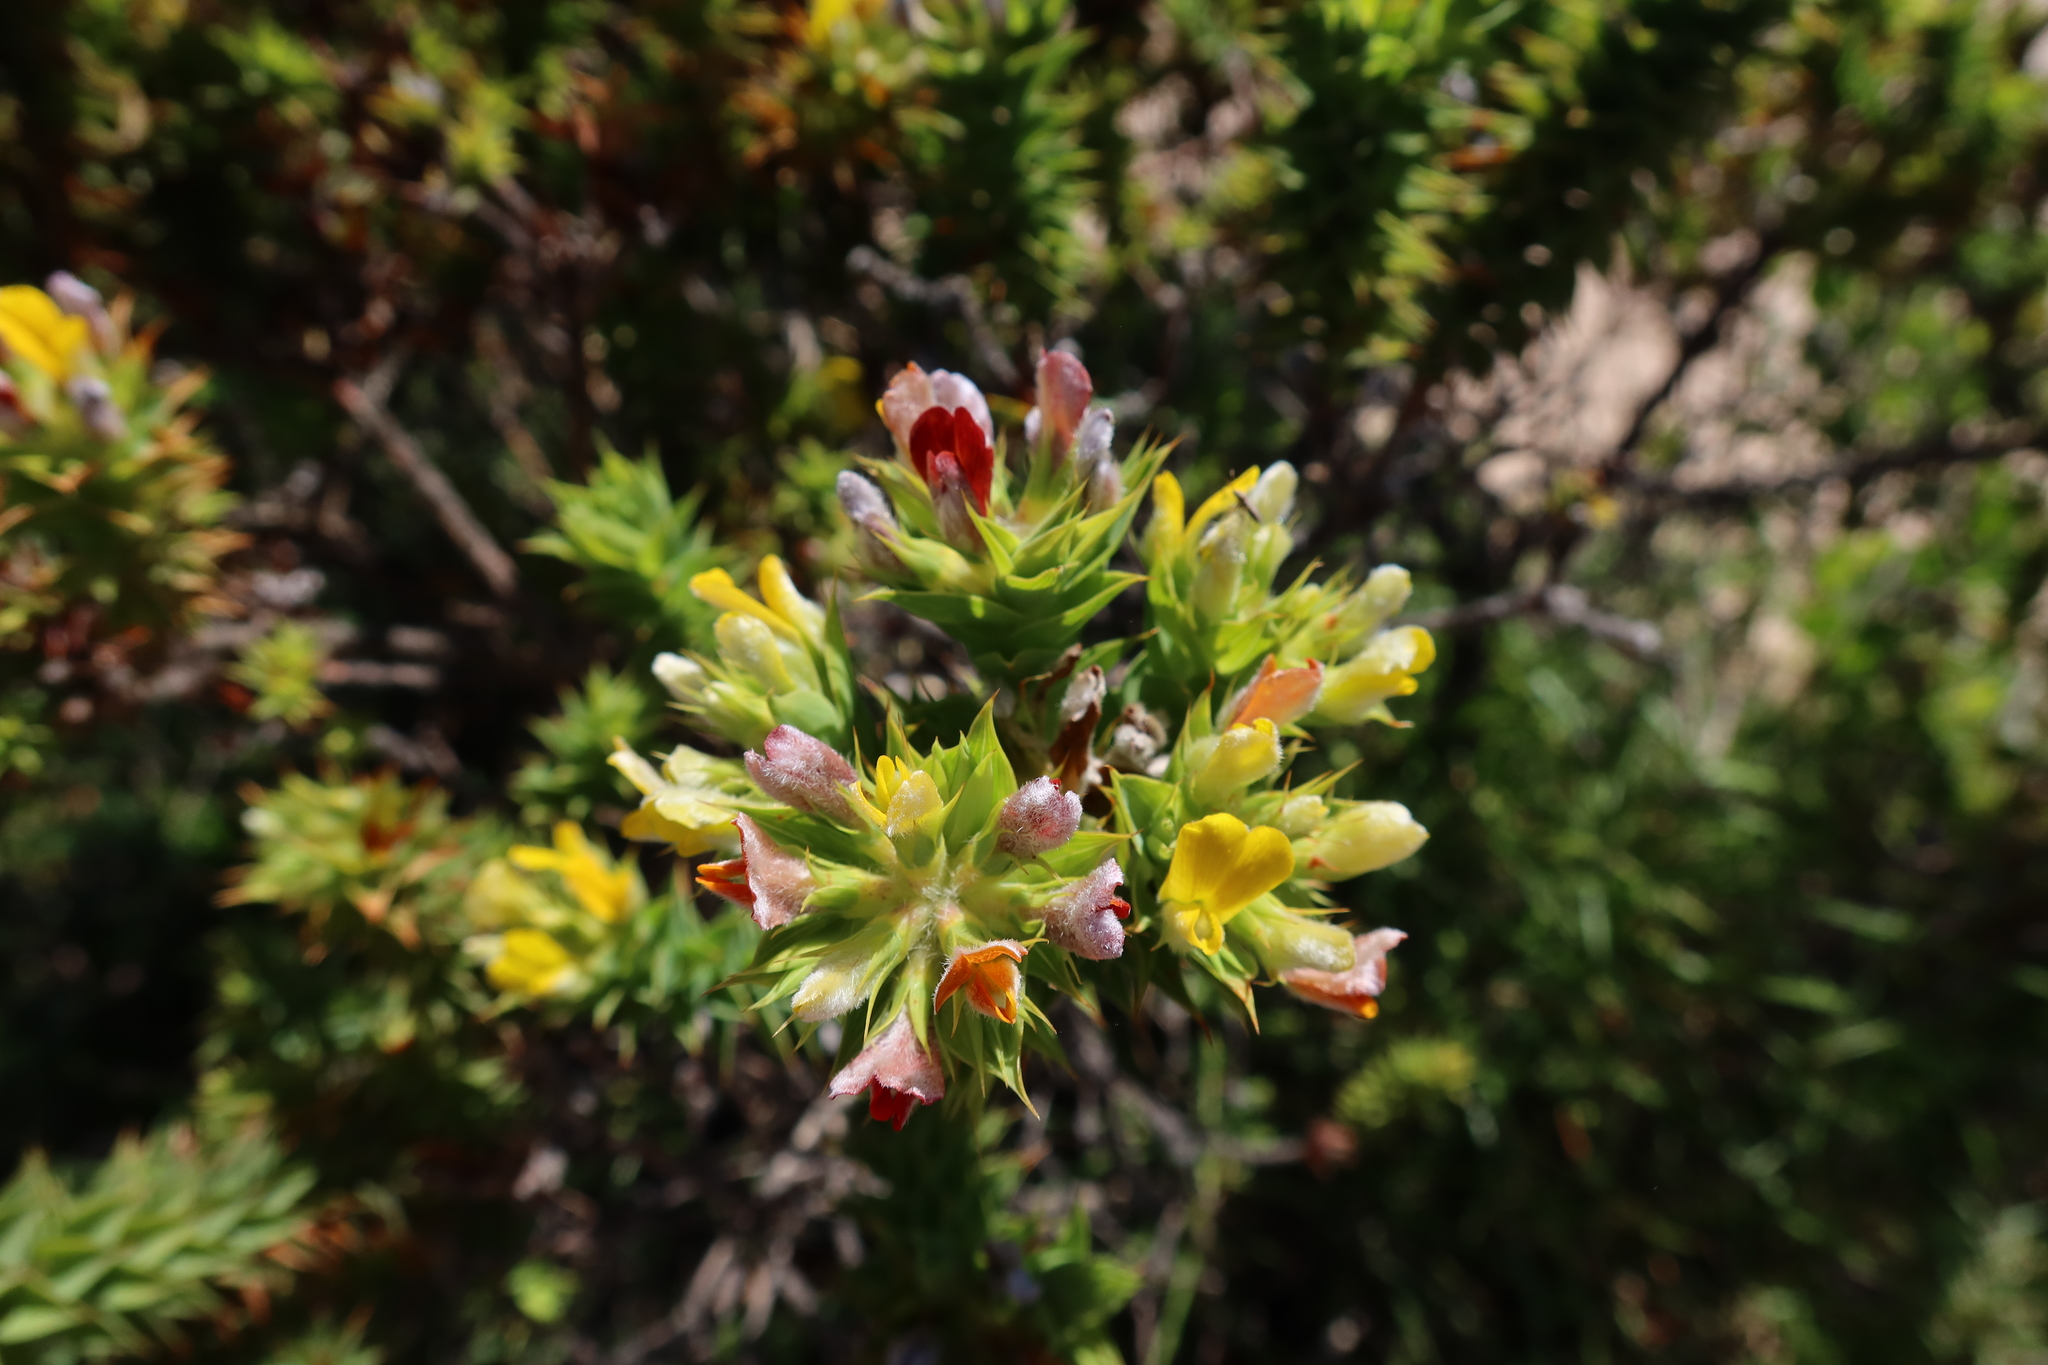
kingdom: Plantae
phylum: Tracheophyta
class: Magnoliopsida
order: Fabales
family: Fabaceae
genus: Aspalathus
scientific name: Aspalathus cordata
